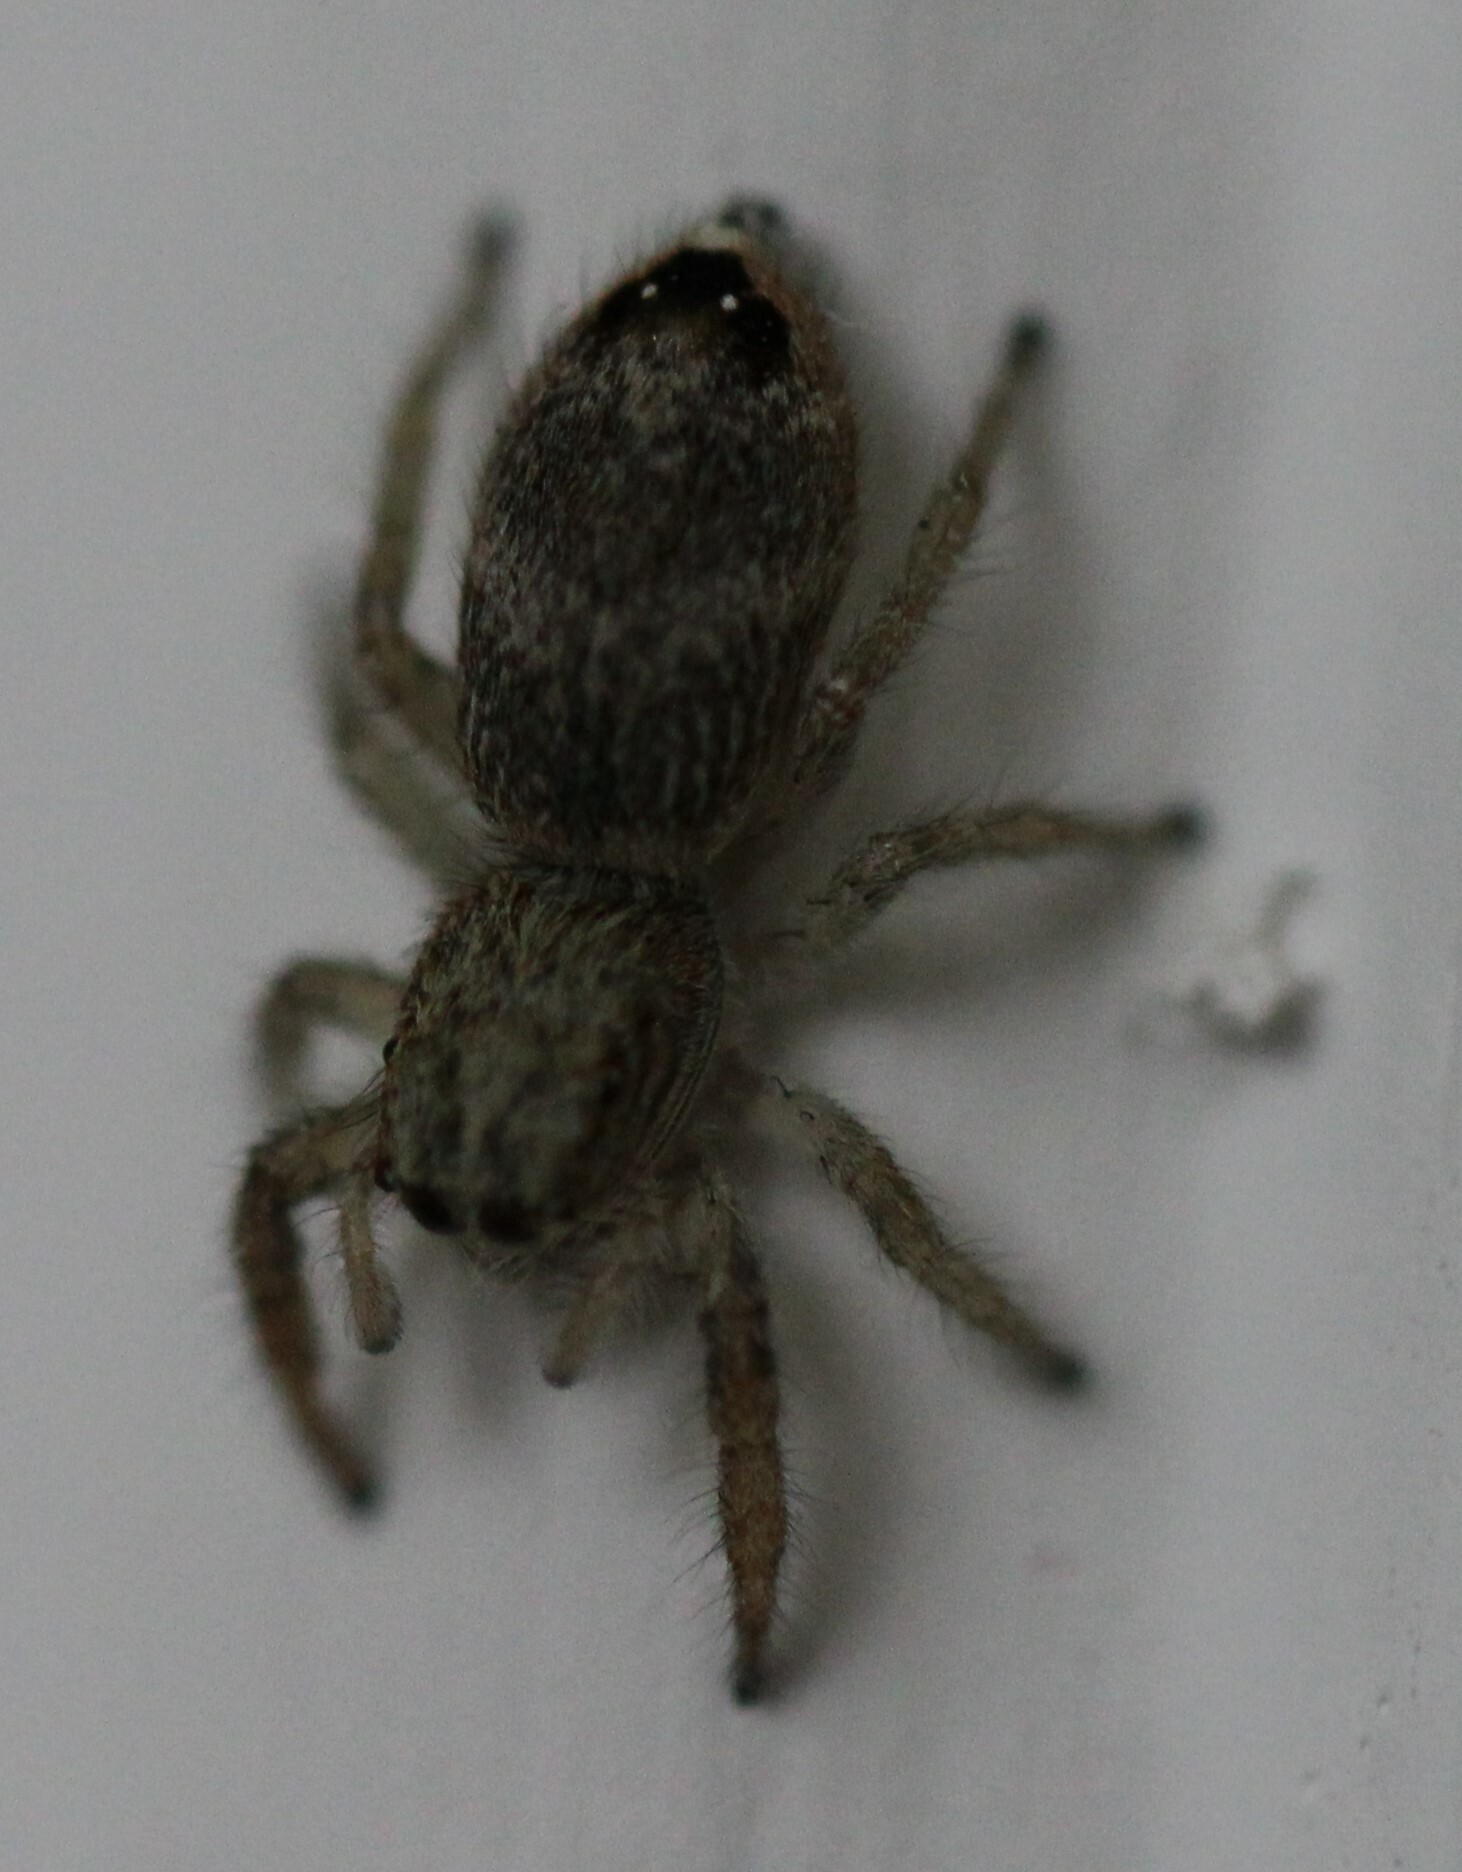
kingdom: Animalia
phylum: Arthropoda
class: Arachnida
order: Araneae
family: Salticidae
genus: Rudakius
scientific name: Rudakius cinctus
